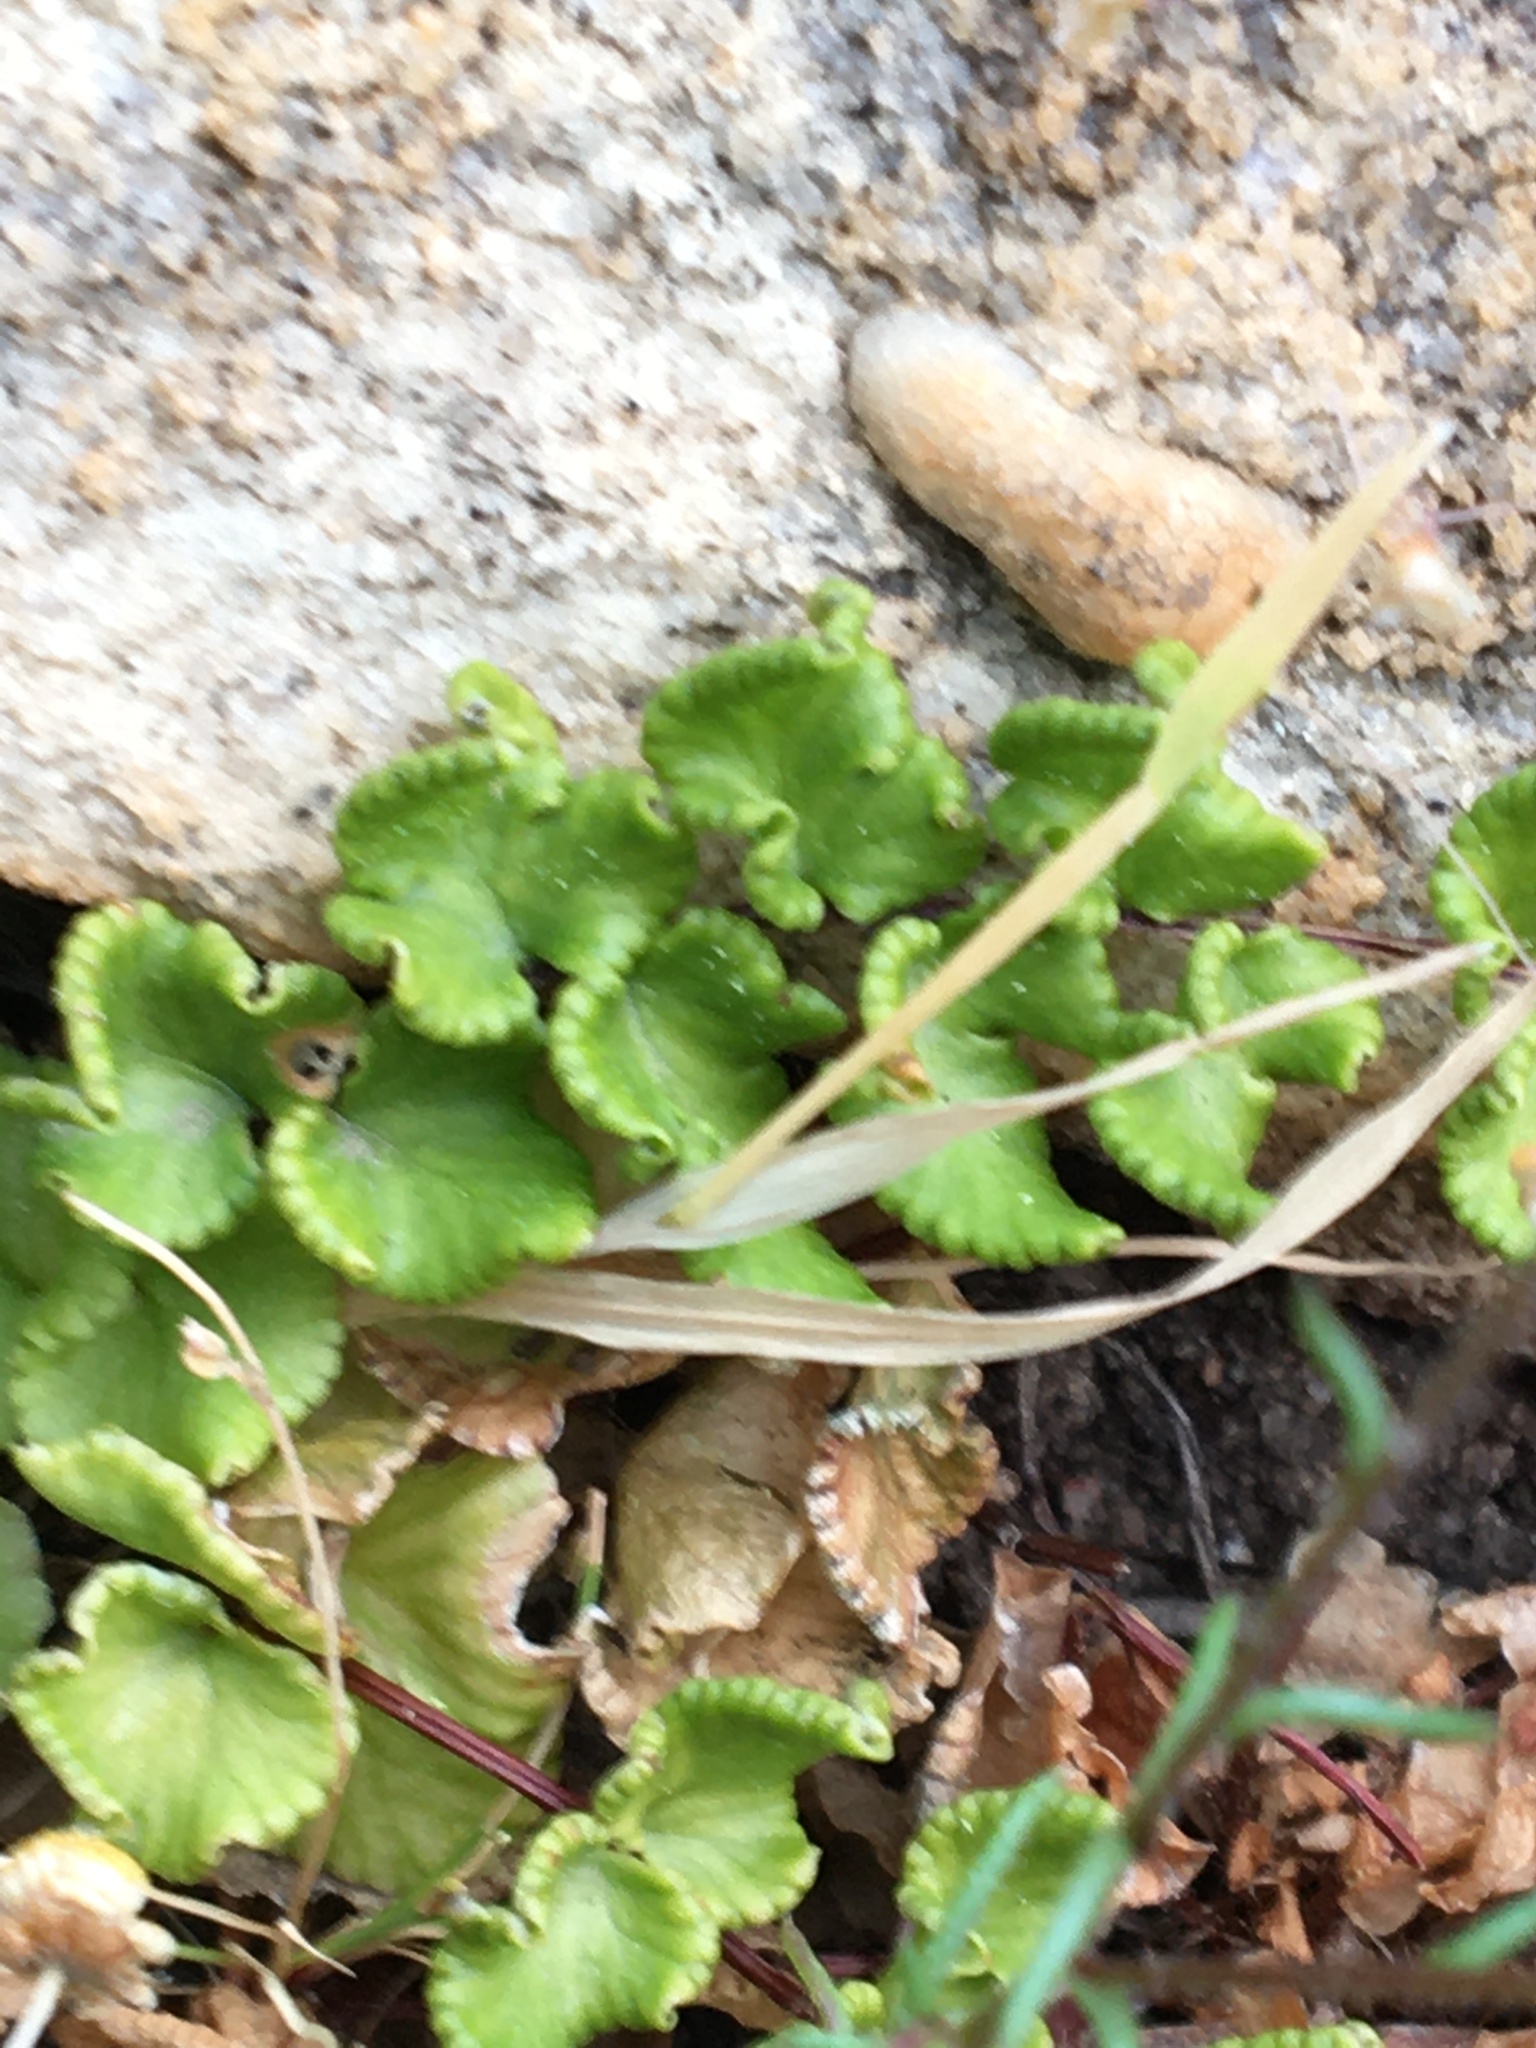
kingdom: Plantae
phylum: Tracheophyta
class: Polypodiopsida
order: Polypodiales
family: Pteridaceae
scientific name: Pteridaceae
